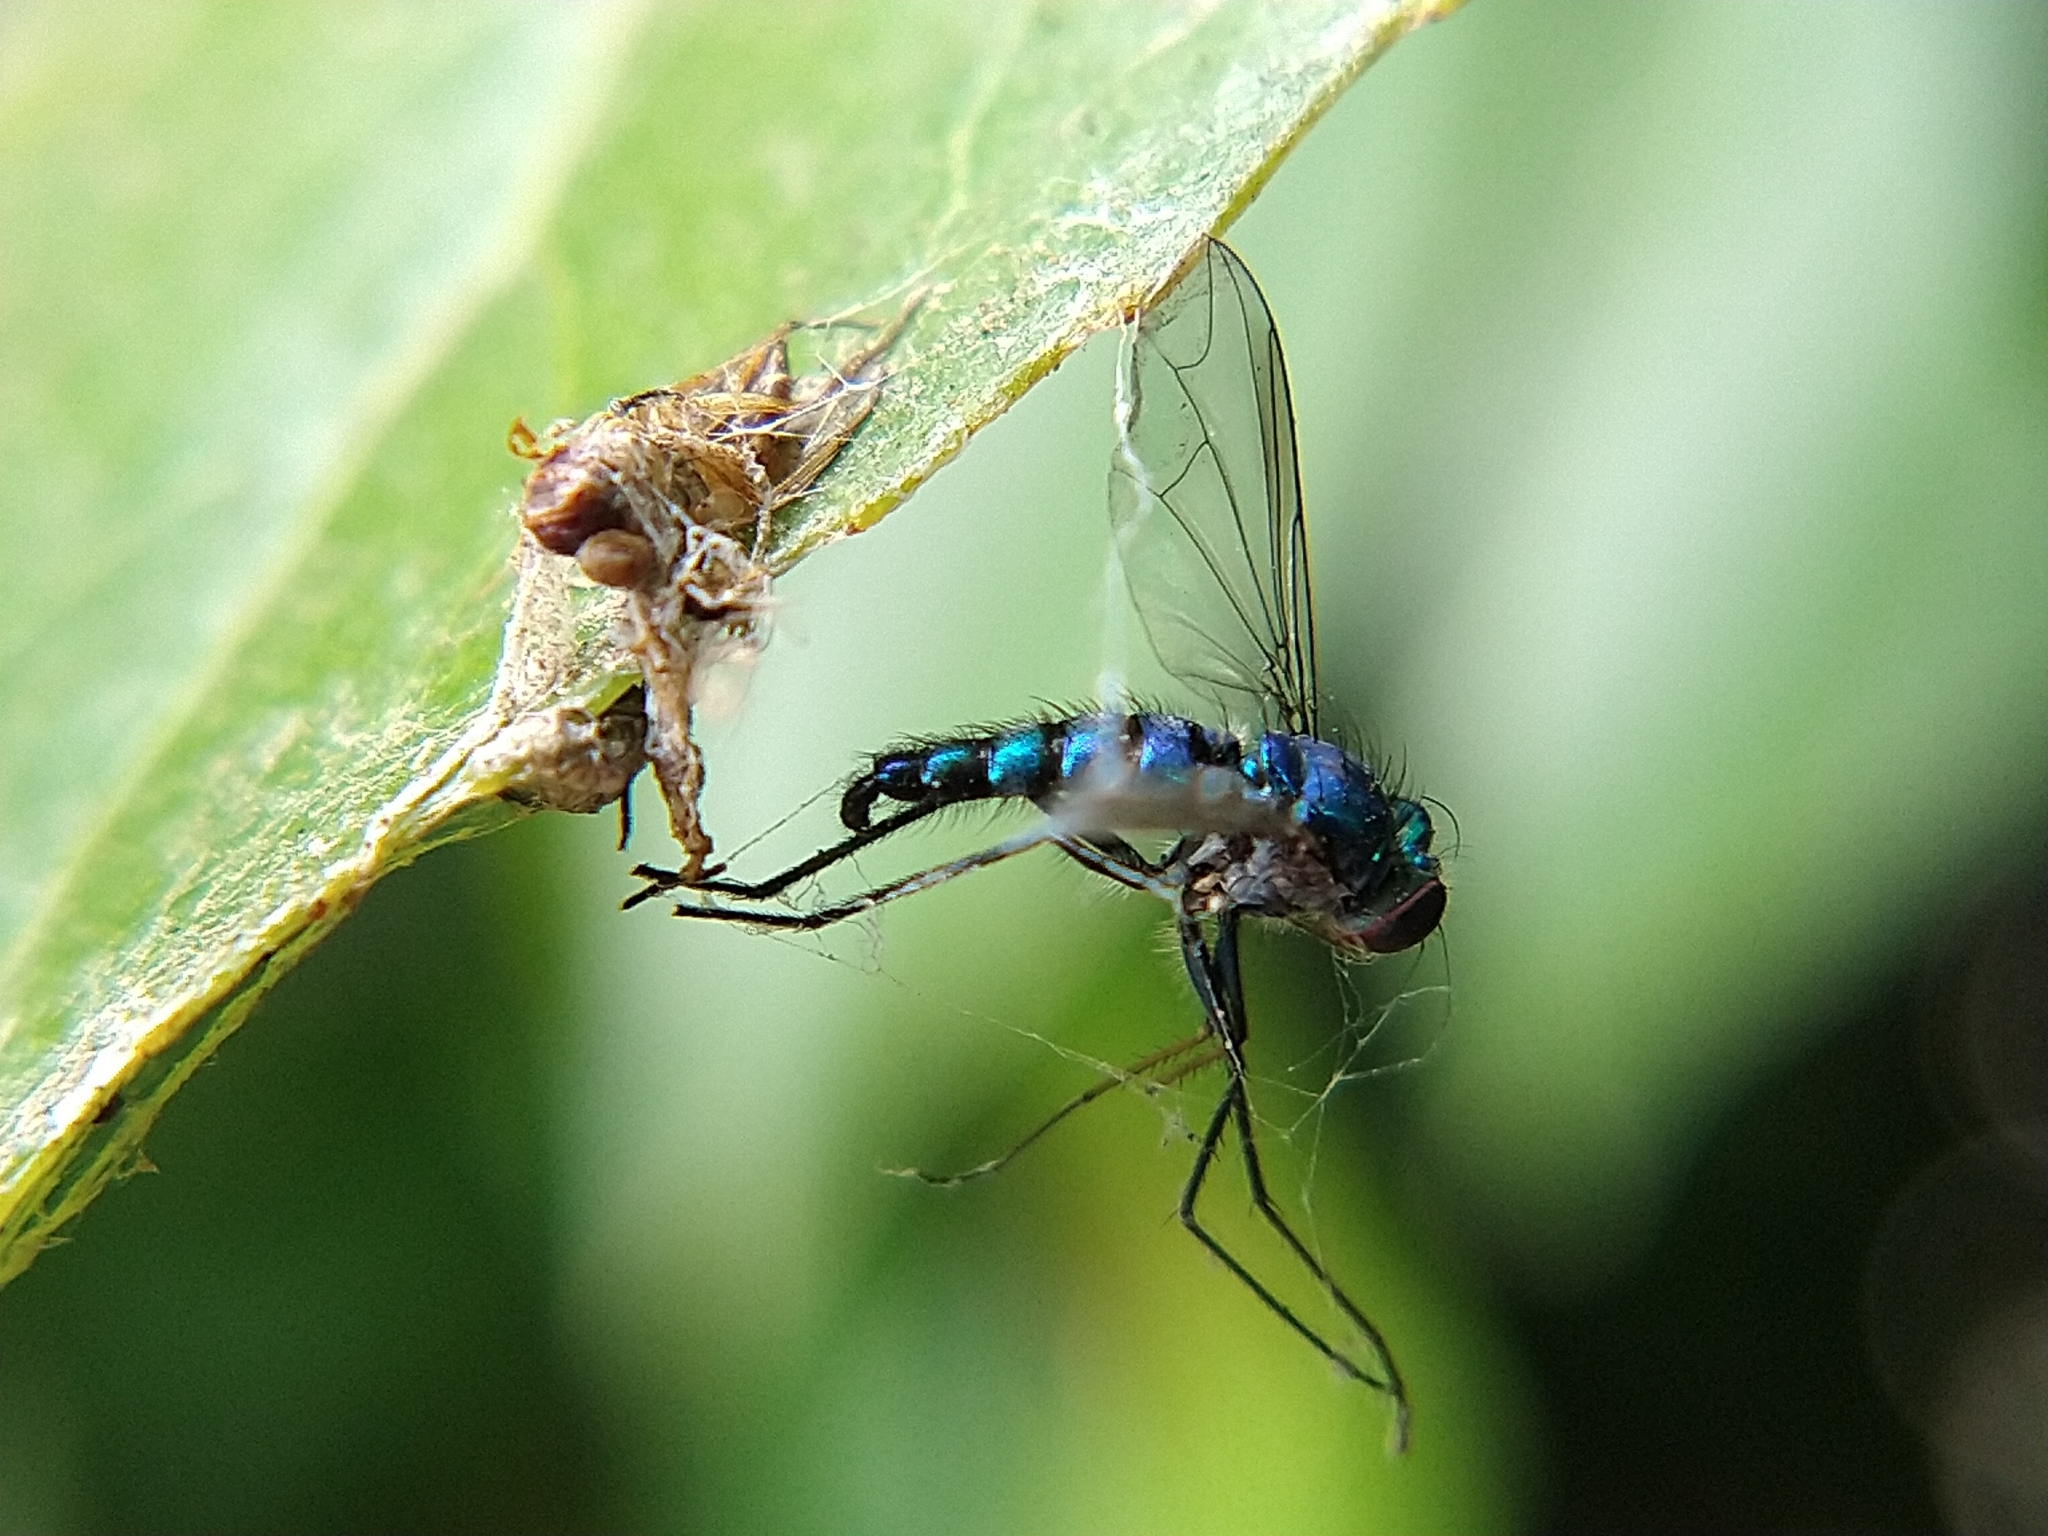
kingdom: Animalia
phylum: Arthropoda
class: Insecta
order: Diptera
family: Dolichopodidae
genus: Condylostylus
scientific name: Condylostylus longicornis
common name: Long-legged fly
